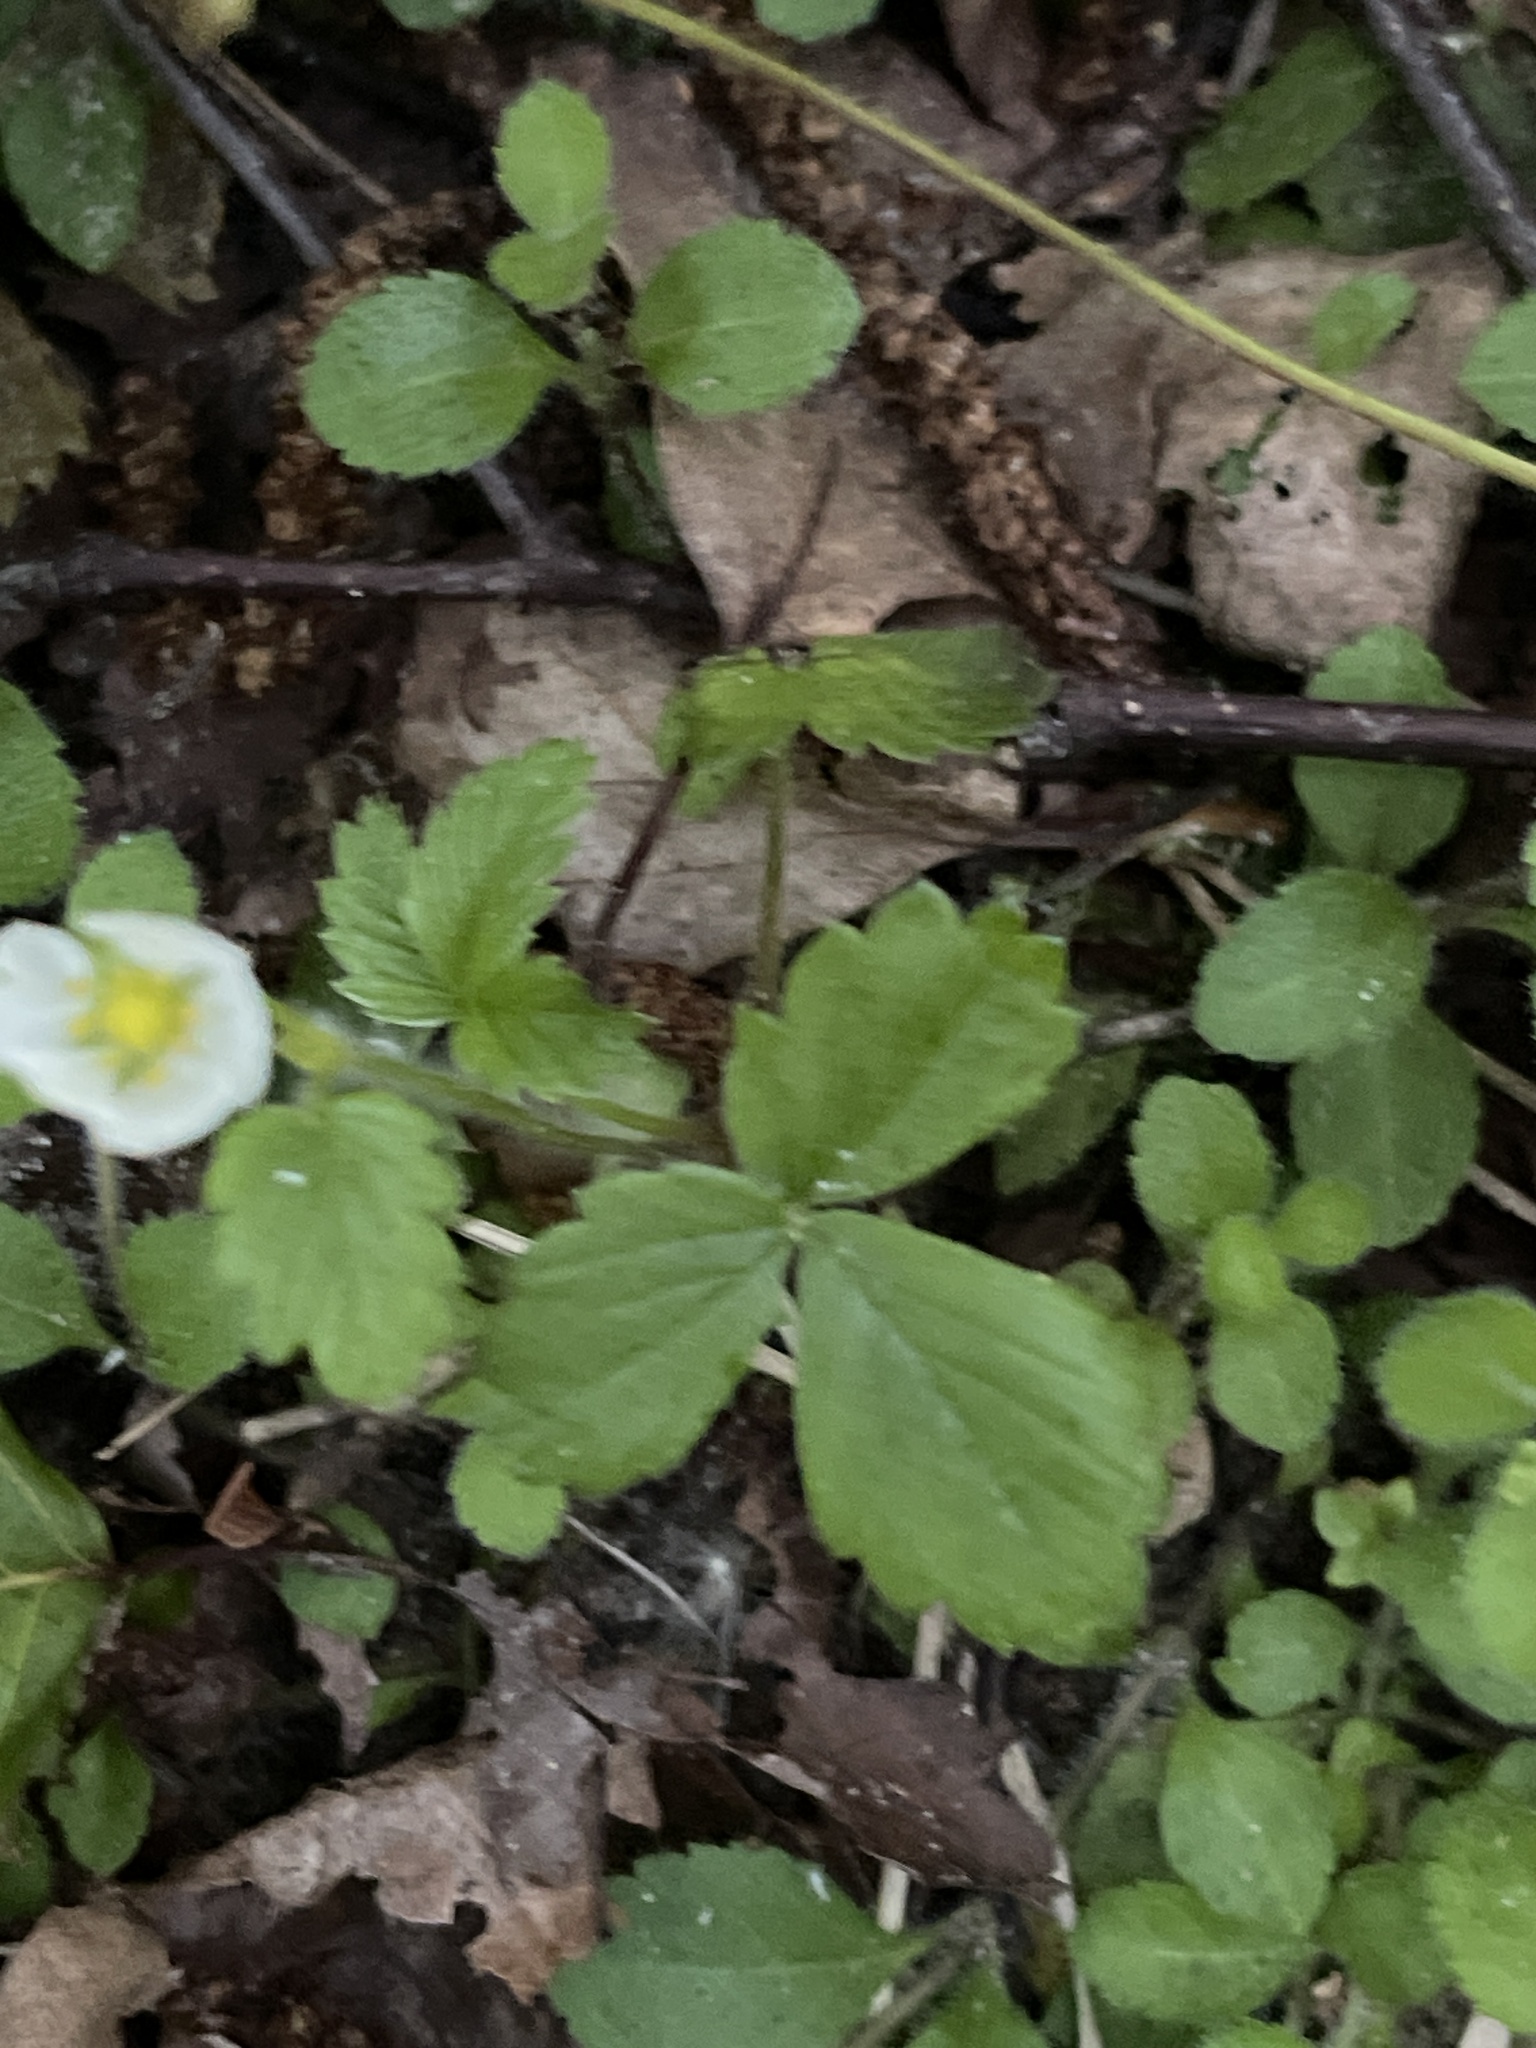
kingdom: Plantae
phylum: Tracheophyta
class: Magnoliopsida
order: Rosales
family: Rosaceae
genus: Fragaria
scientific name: Fragaria vesca
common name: Wild strawberry
